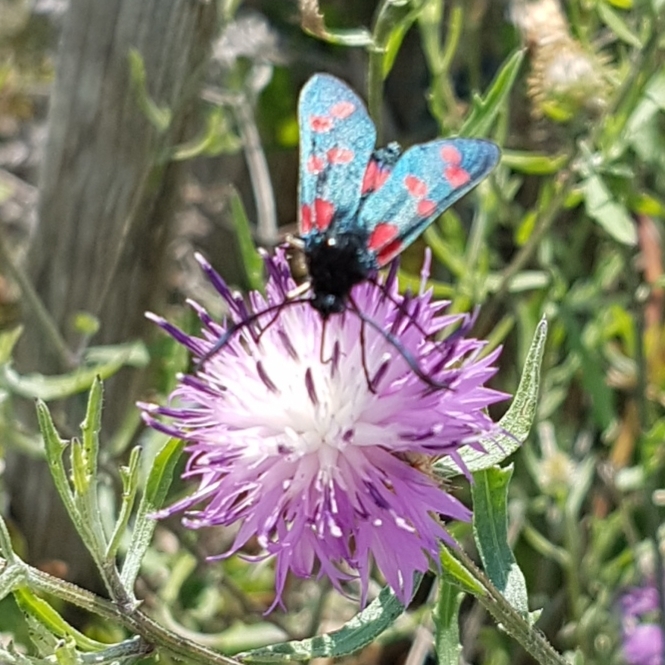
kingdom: Animalia
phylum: Arthropoda
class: Insecta
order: Lepidoptera
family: Zygaenidae
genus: Zygaena
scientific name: Zygaena filipendulae
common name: Six-spot burnet
